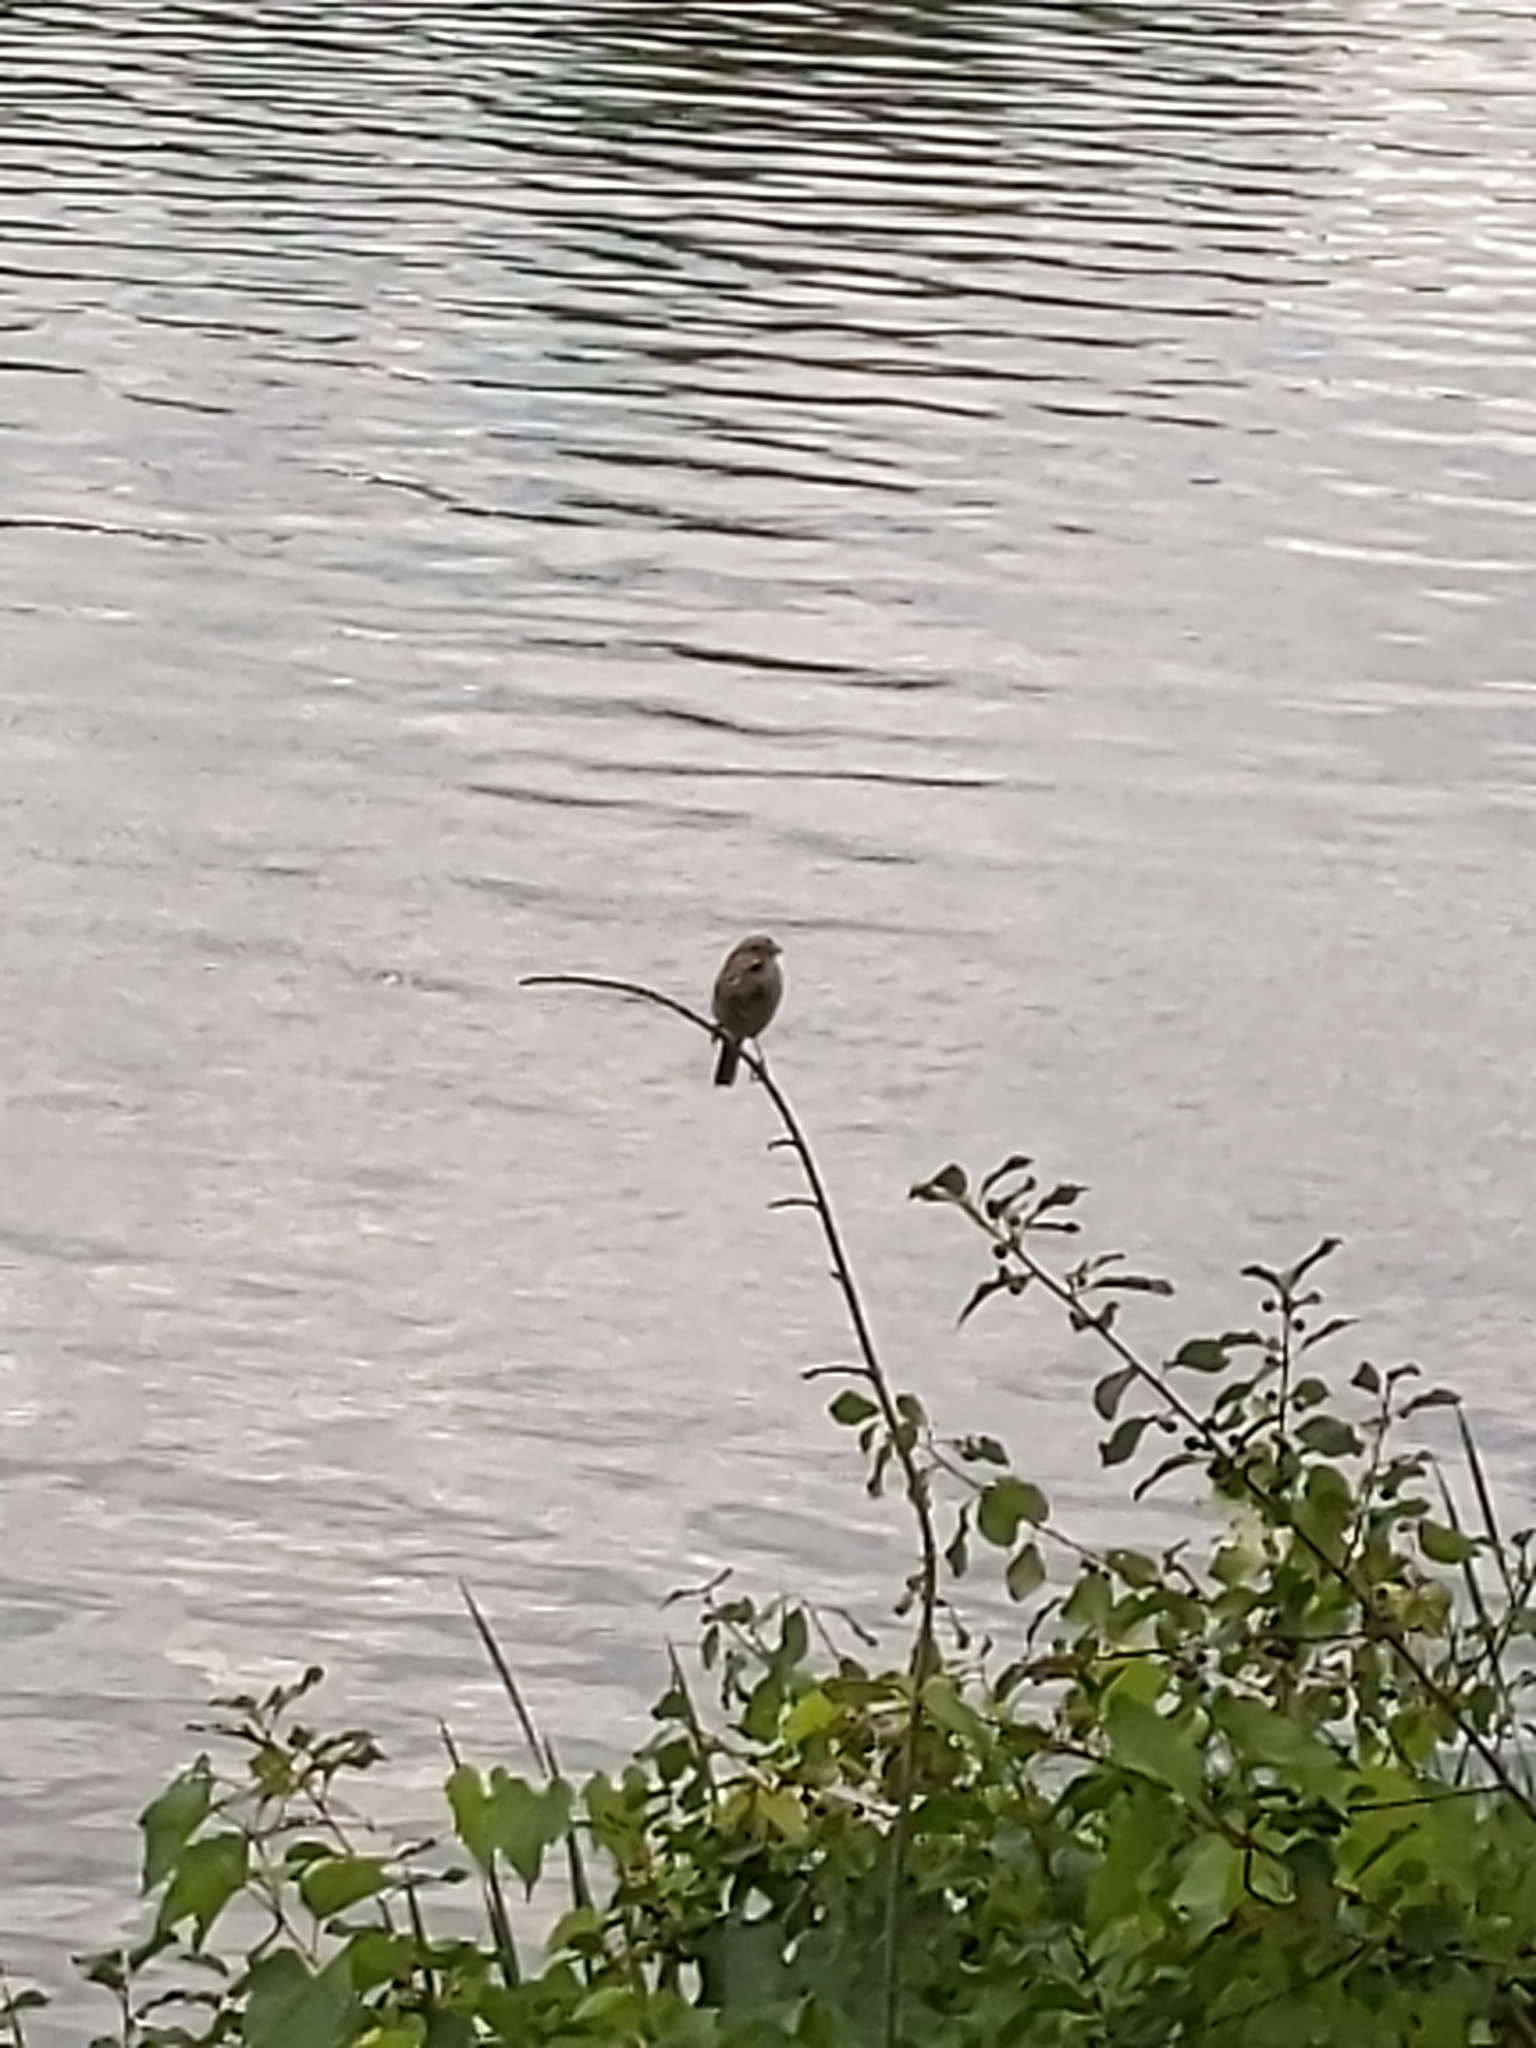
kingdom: Animalia
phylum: Chordata
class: Aves
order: Passeriformes
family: Passerellidae
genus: Melospiza
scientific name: Melospiza melodia
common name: Song sparrow
